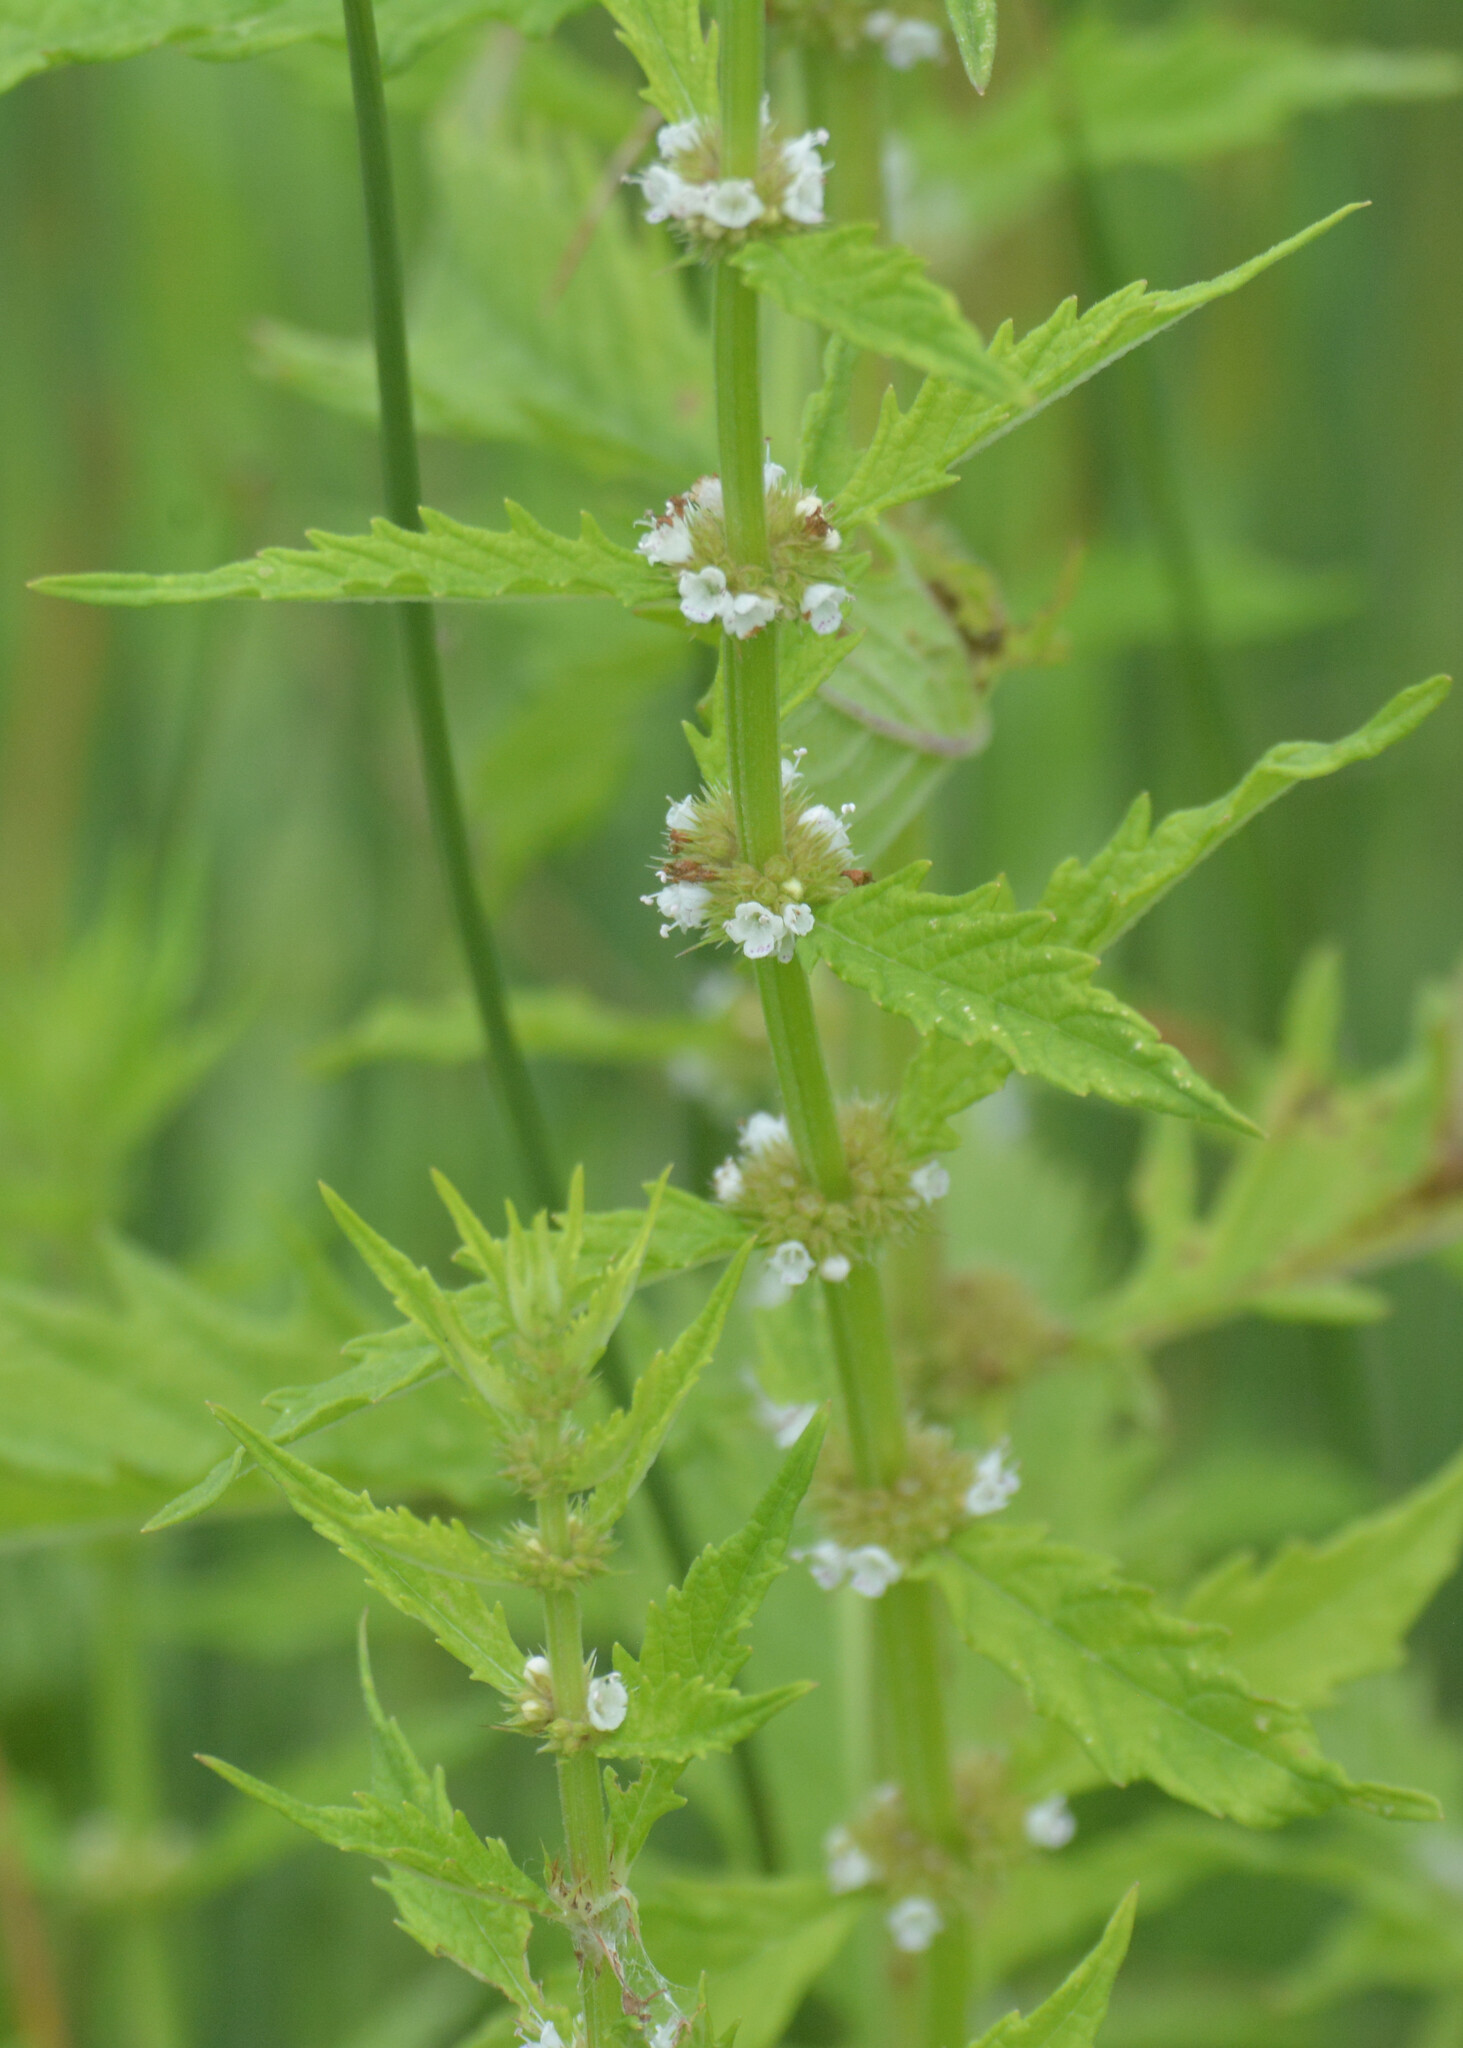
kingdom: Plantae
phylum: Tracheophyta
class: Magnoliopsida
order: Lamiales
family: Lamiaceae
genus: Lycopus
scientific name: Lycopus europaeus
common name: European bugleweed
